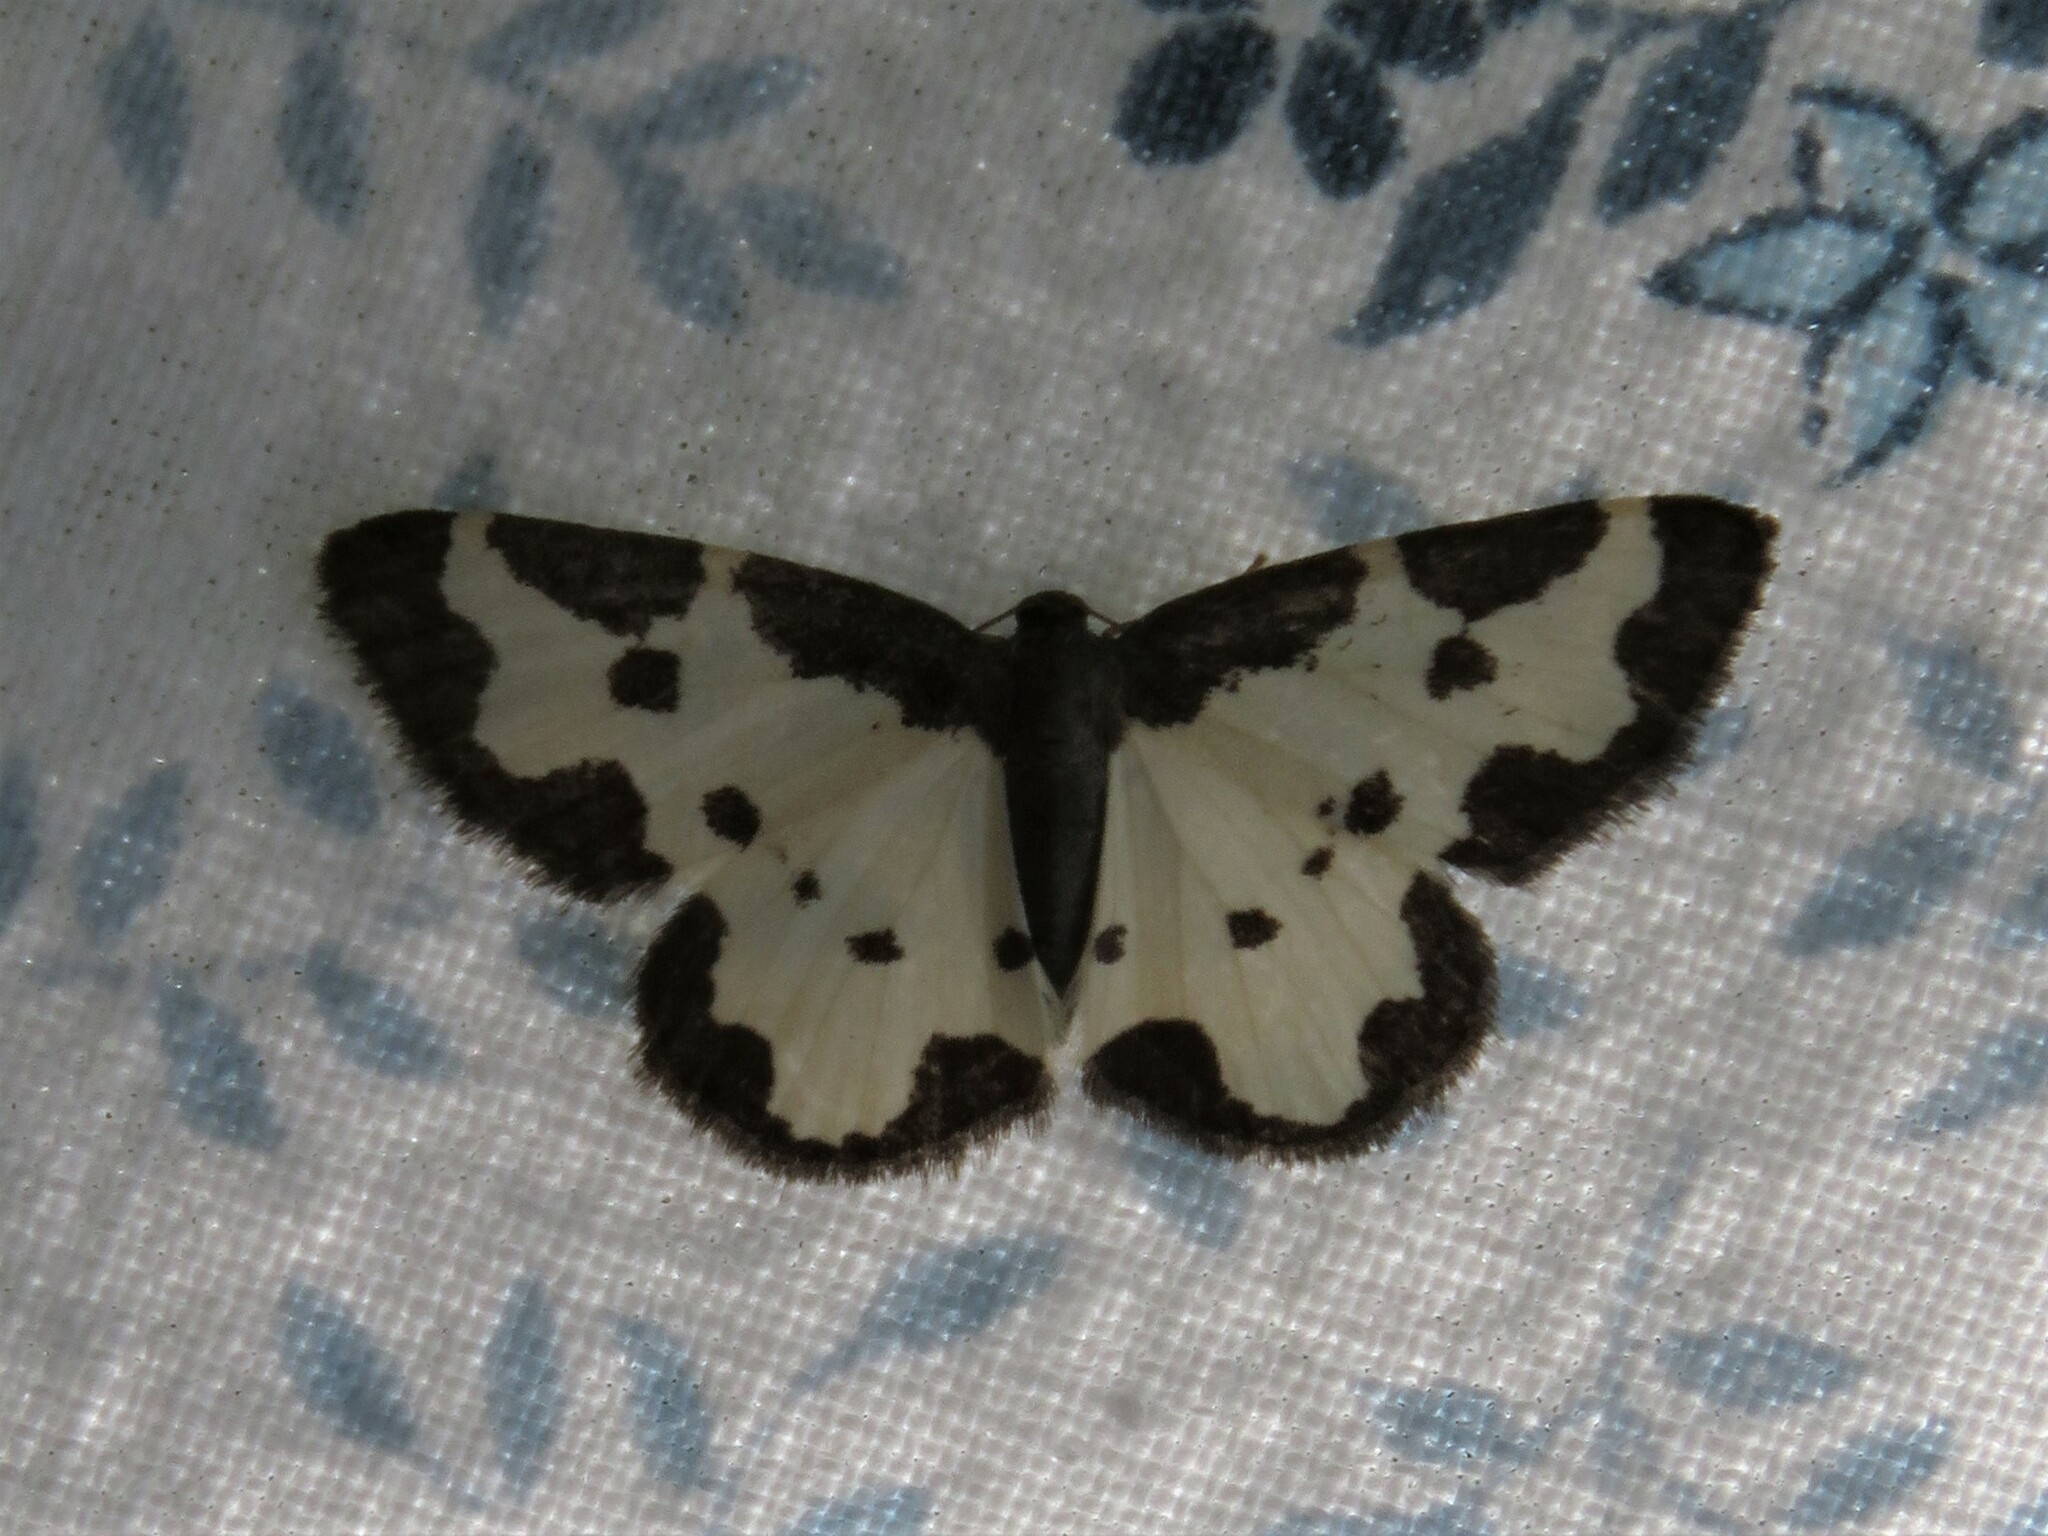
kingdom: Animalia
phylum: Arthropoda
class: Insecta
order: Lepidoptera
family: Geometridae
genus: Lomaspilis
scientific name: Lomaspilis marginata
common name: Clouded border
